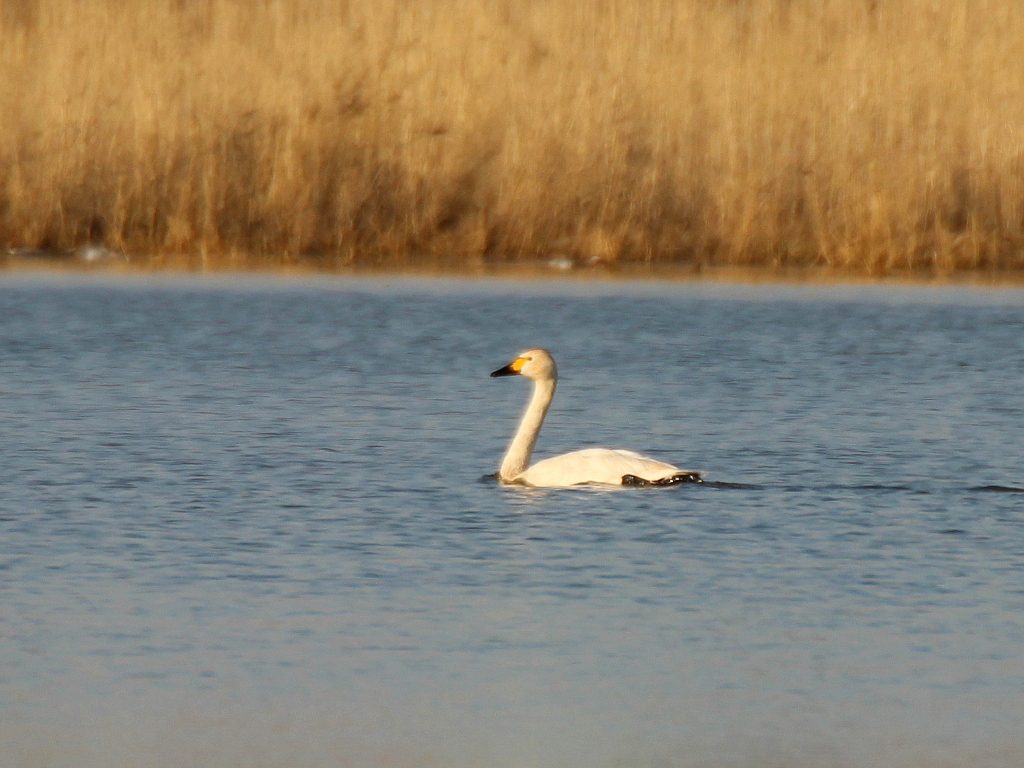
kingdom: Animalia
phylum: Chordata
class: Aves
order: Anseriformes
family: Anatidae
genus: Cygnus
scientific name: Cygnus columbianus
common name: Tundra swan
